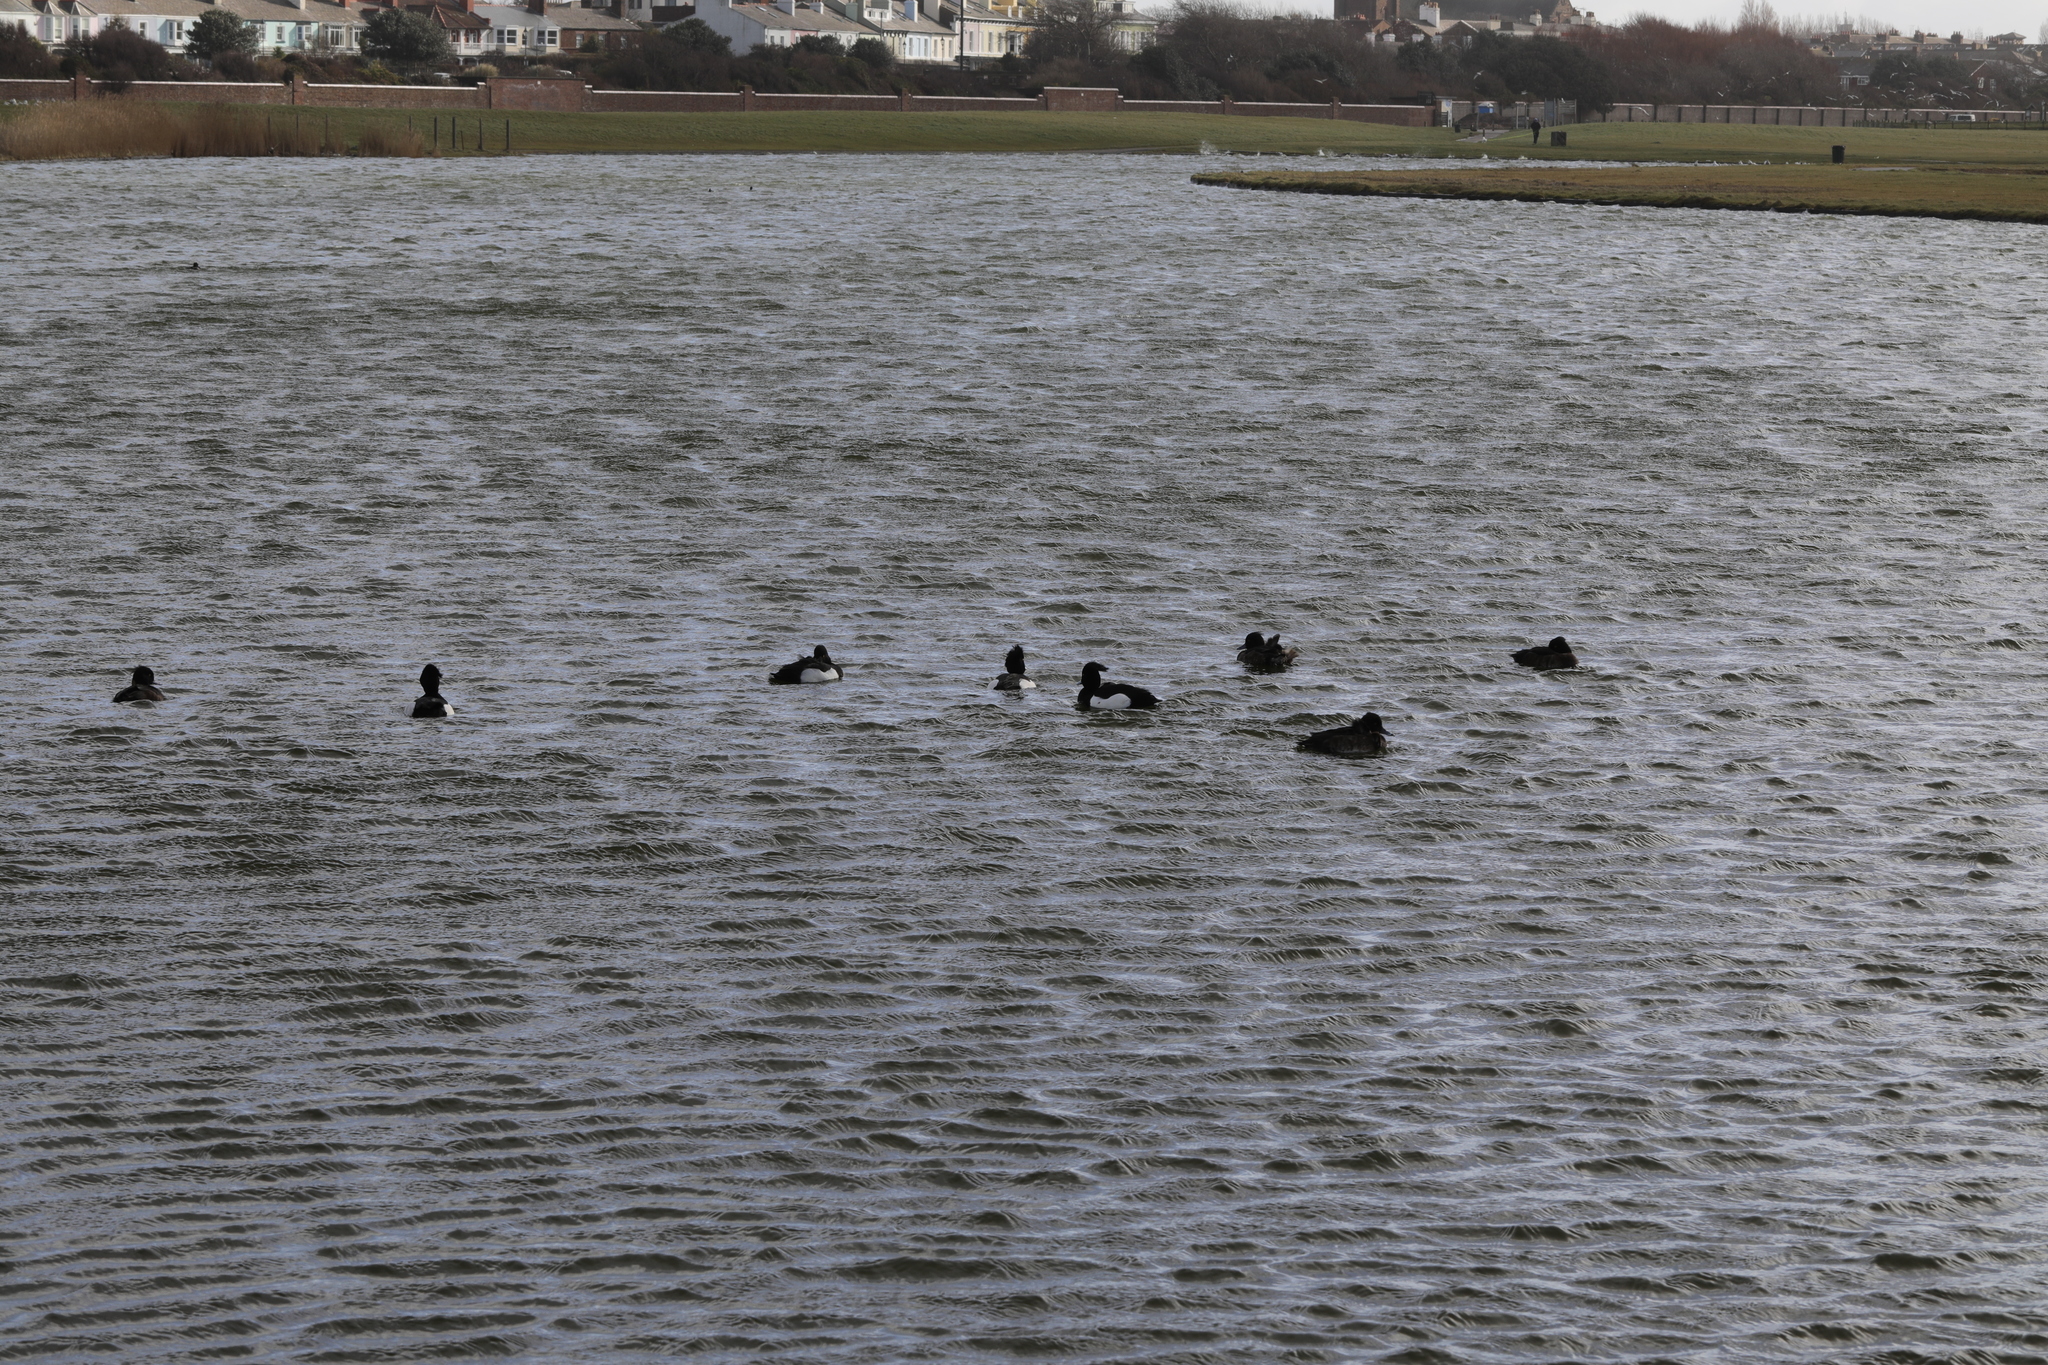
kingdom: Animalia
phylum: Chordata
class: Aves
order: Anseriformes
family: Anatidae
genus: Aythya
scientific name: Aythya fuligula
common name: Tufted duck
